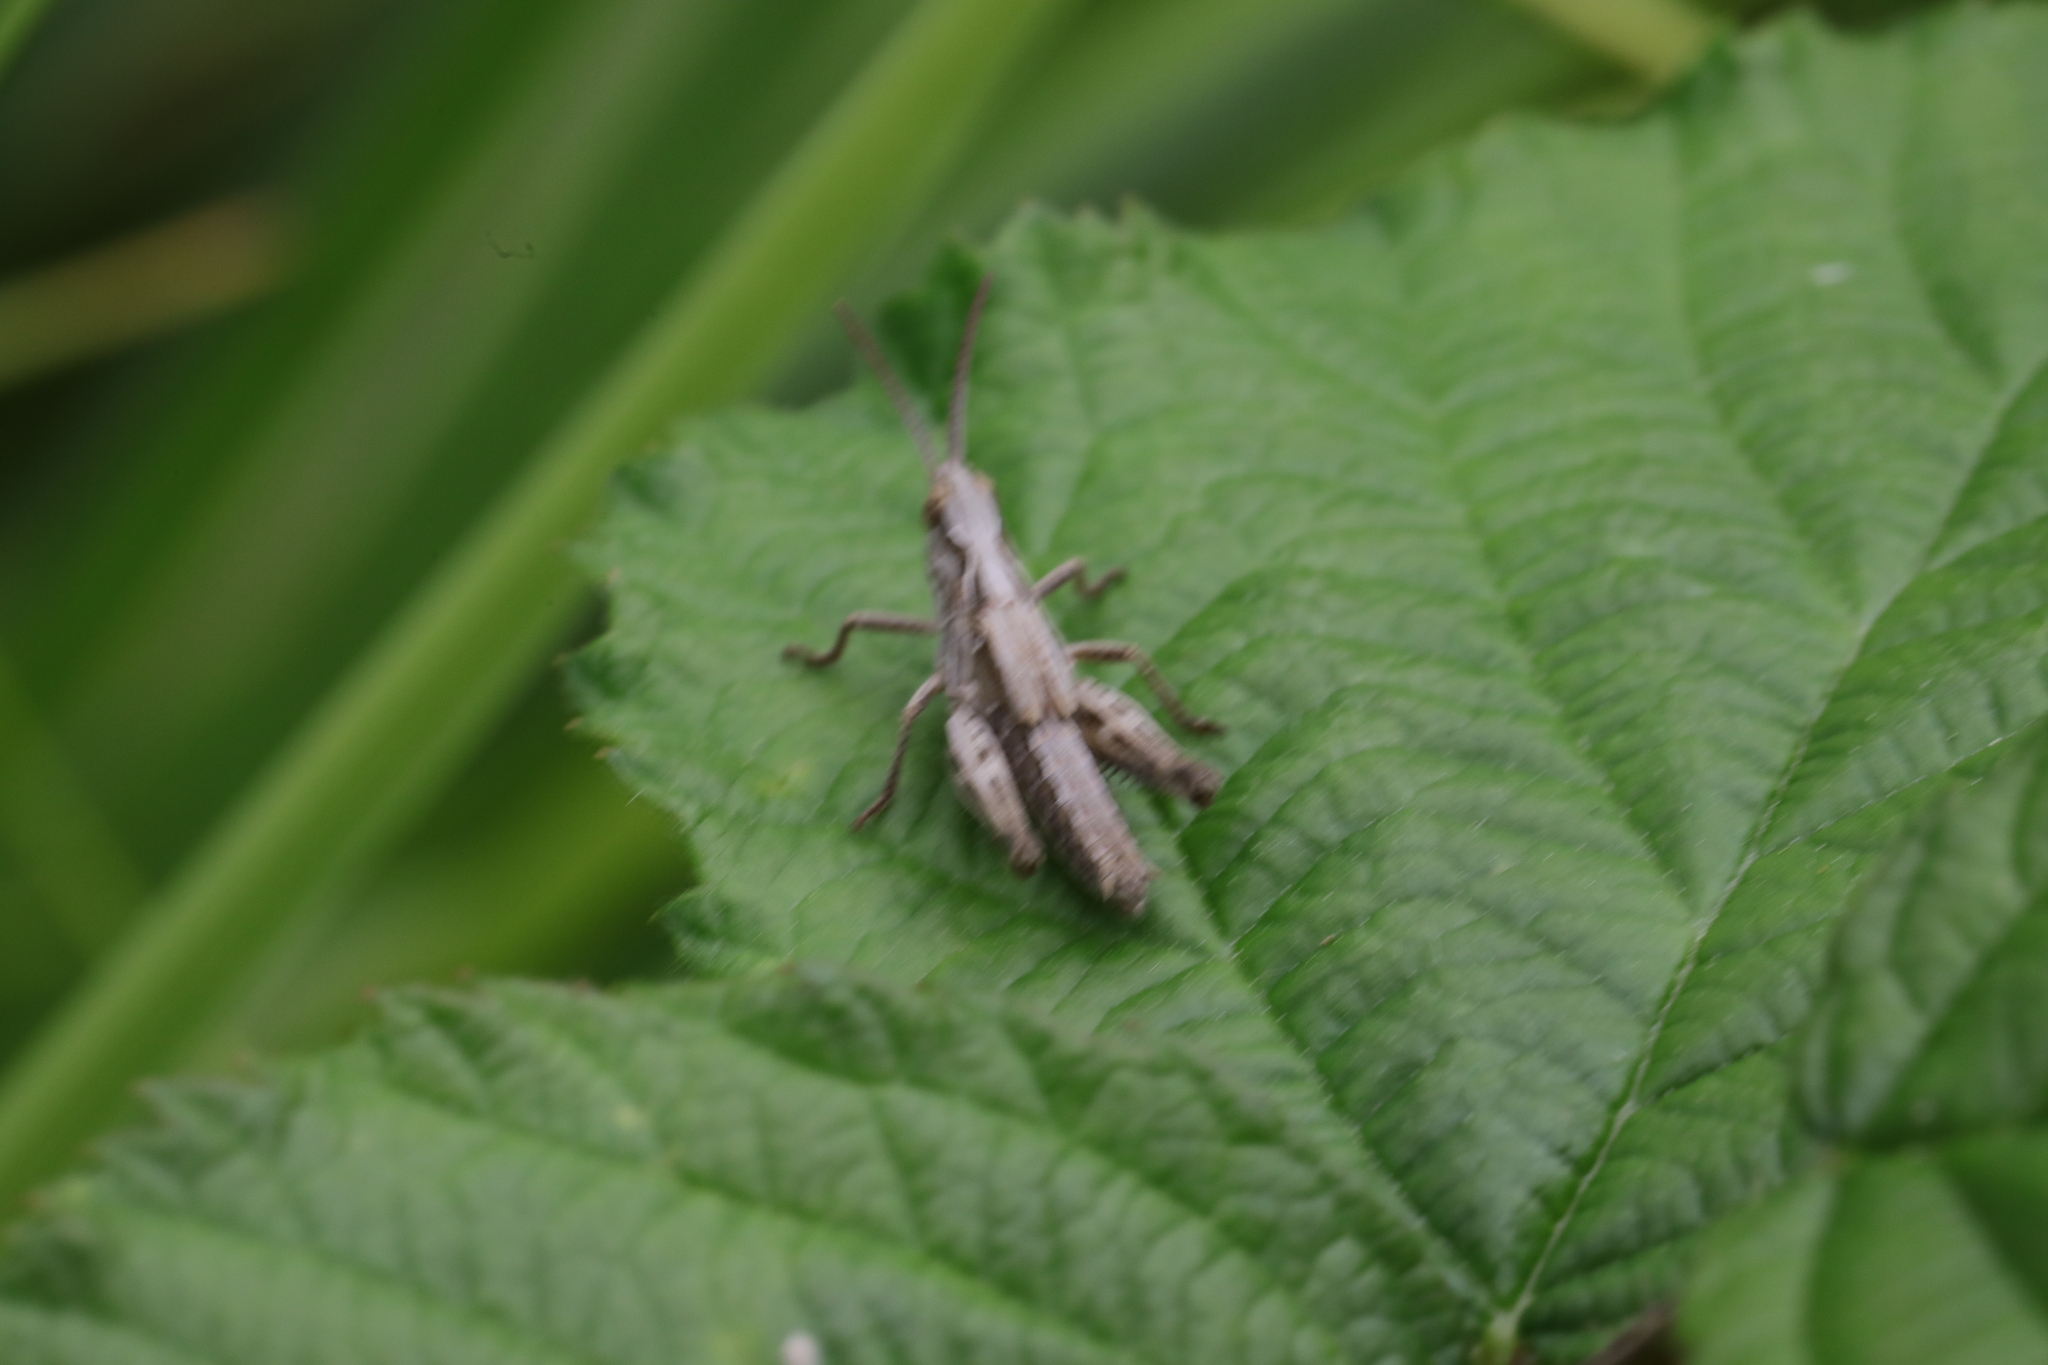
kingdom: Animalia
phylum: Arthropoda
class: Insecta
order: Orthoptera
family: Acrididae
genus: Chorthippus
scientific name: Chorthippus brunneus
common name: Field grasshopper
